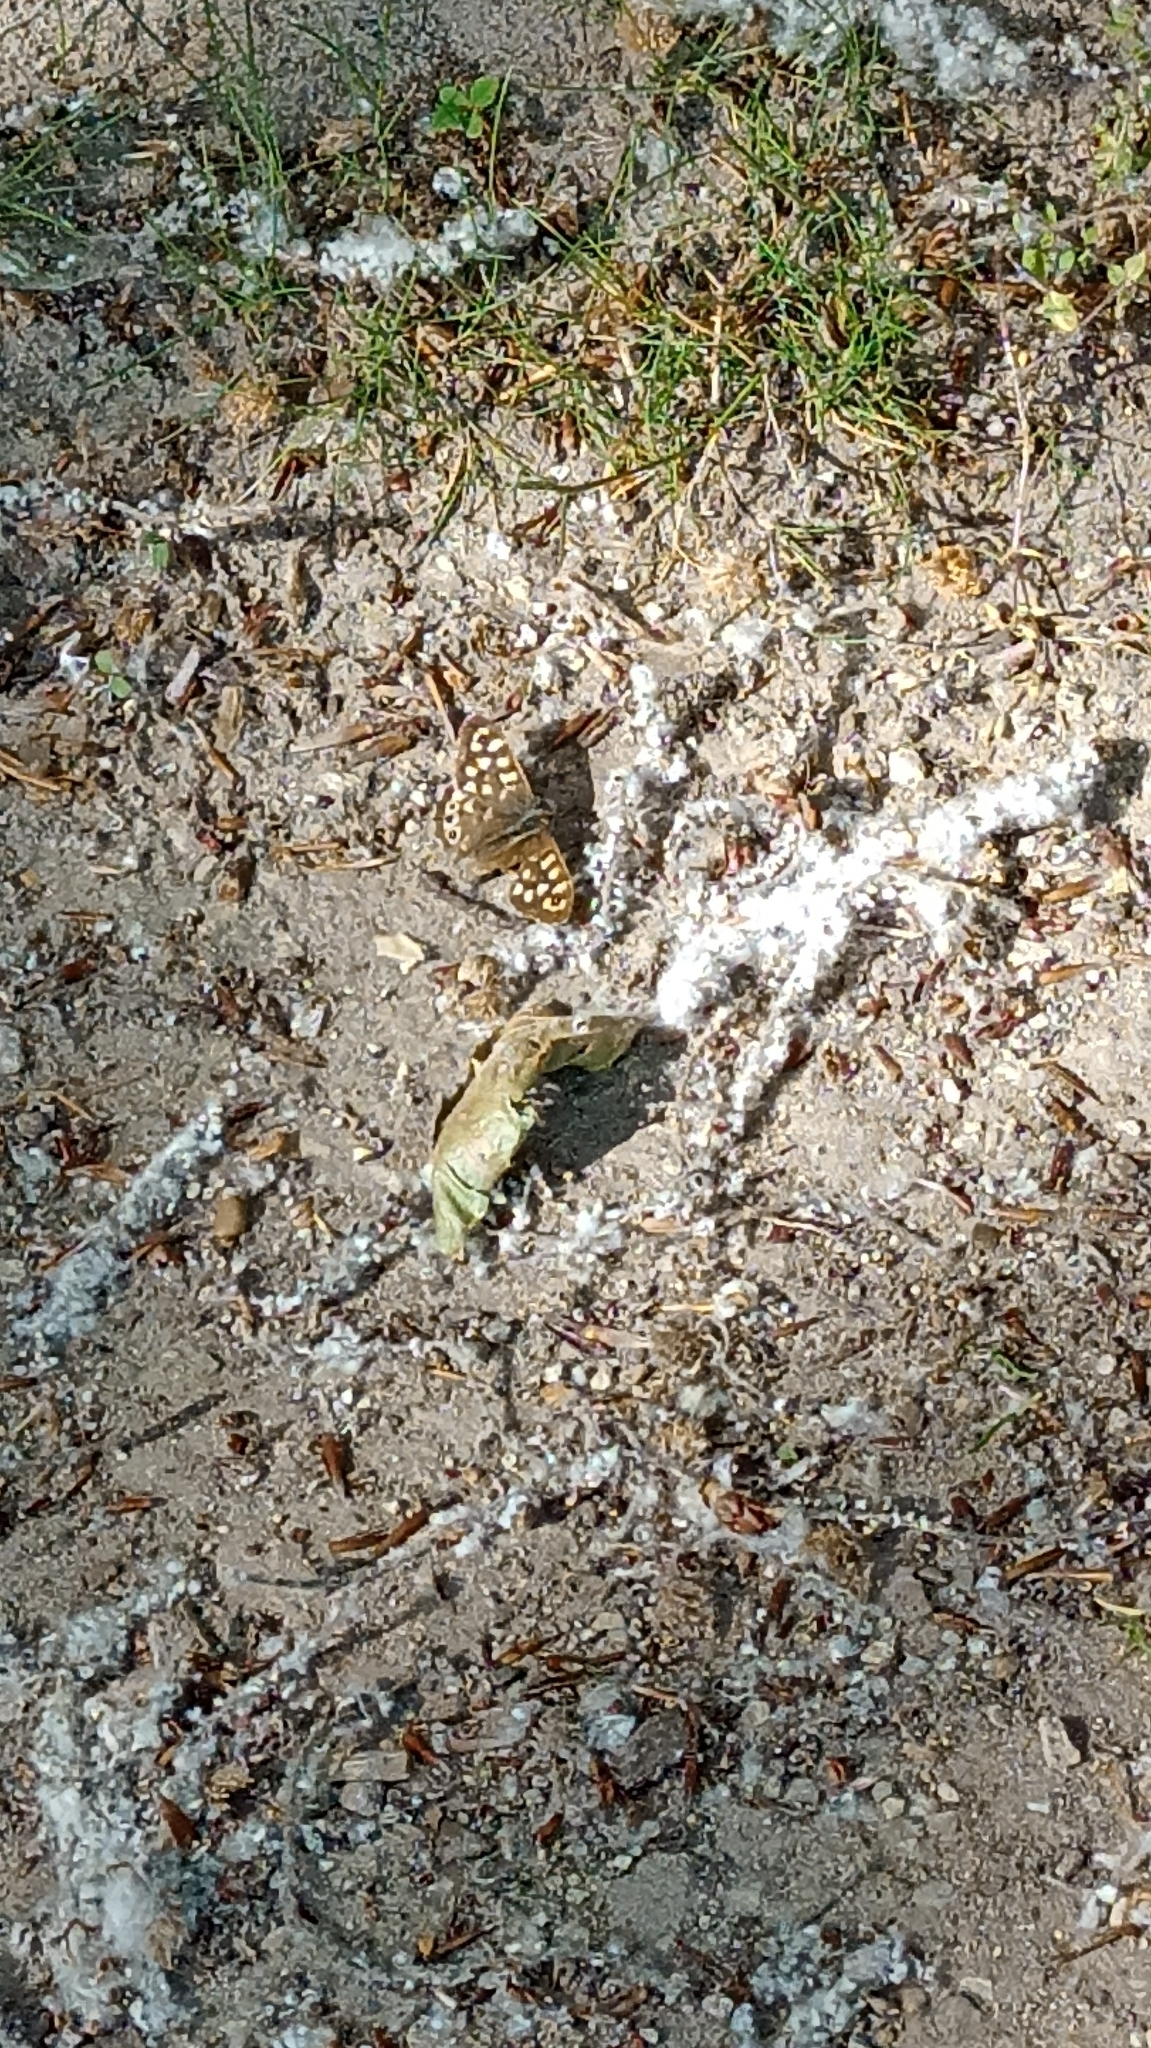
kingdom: Animalia
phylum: Arthropoda
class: Insecta
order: Lepidoptera
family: Nymphalidae
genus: Pararge
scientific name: Pararge aegeria
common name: Speckled wood
